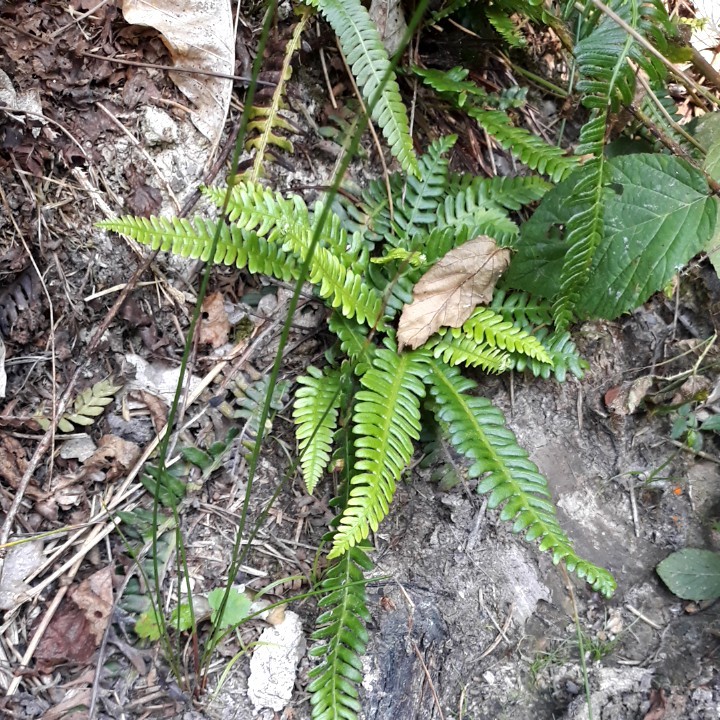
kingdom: Plantae
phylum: Tracheophyta
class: Polypodiopsida
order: Polypodiales
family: Blechnaceae
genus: Struthiopteris
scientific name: Struthiopteris spicant
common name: Deer fern
